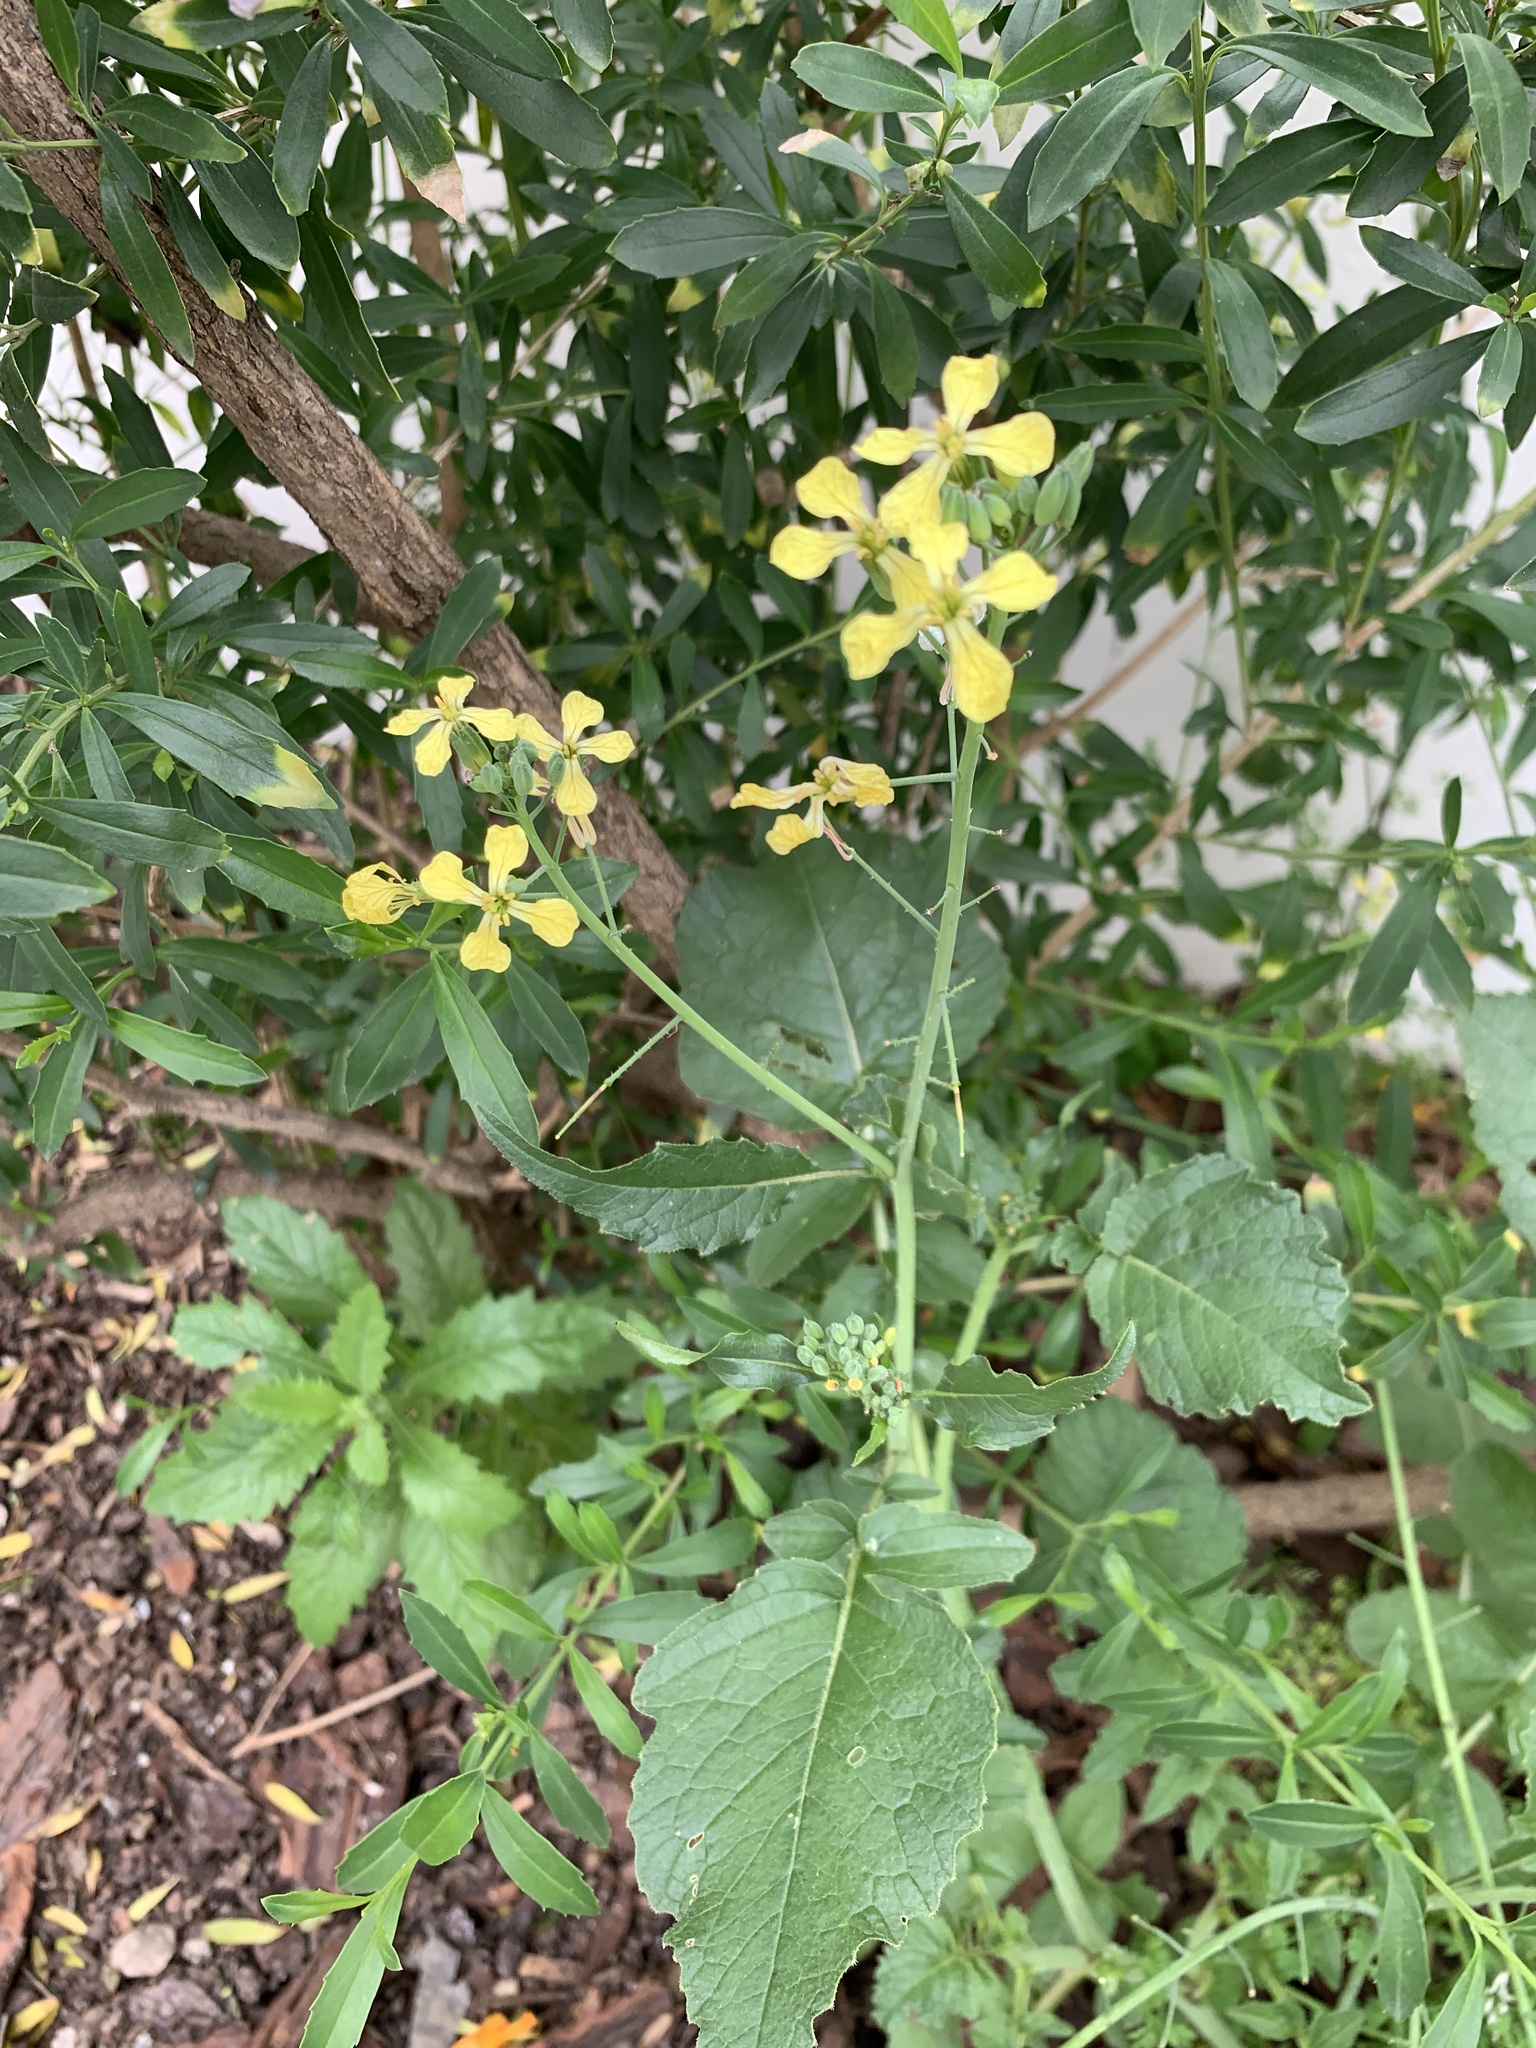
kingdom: Plantae
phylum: Tracheophyta
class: Magnoliopsida
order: Brassicales
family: Brassicaceae
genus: Raphanus
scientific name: Raphanus raphanistrum
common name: Wild radish
